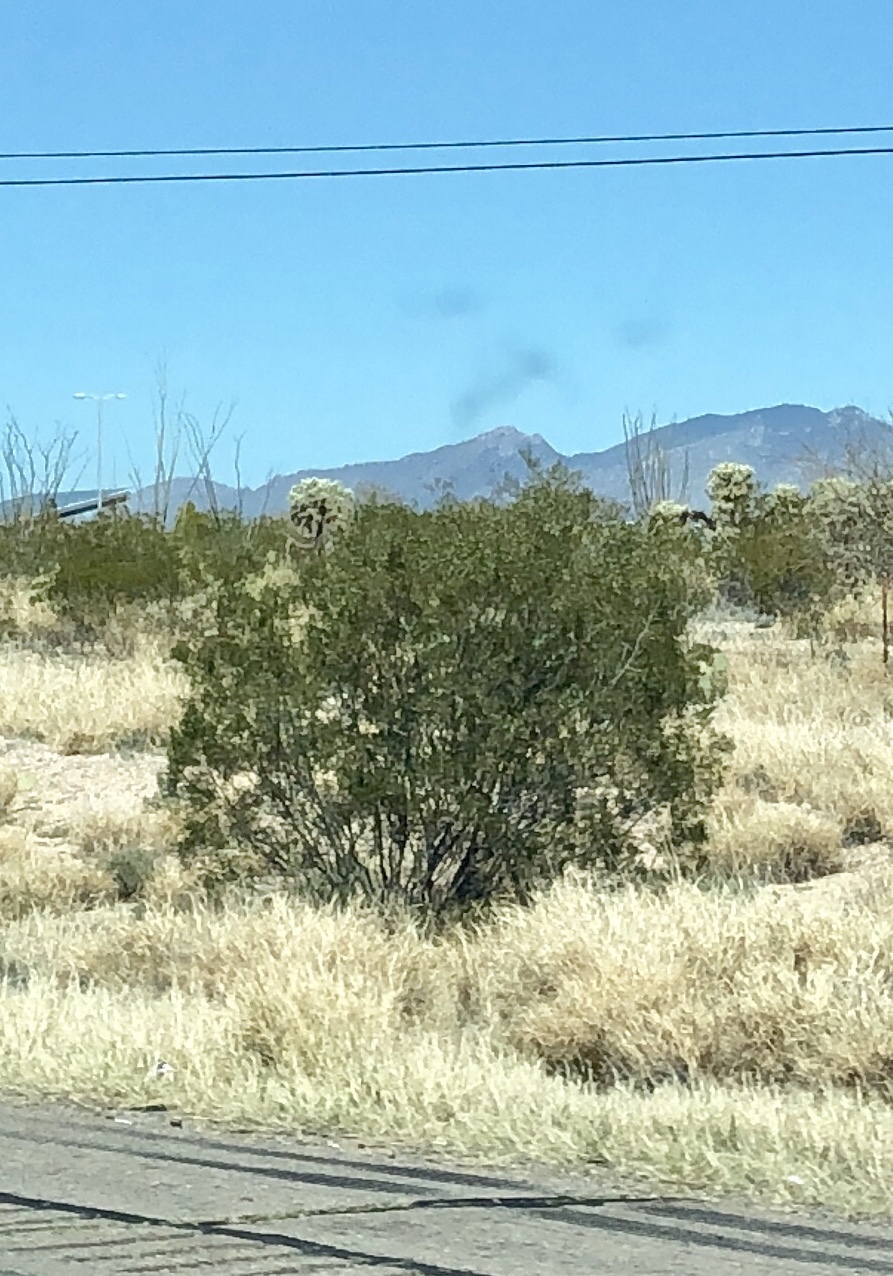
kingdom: Plantae
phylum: Tracheophyta
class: Magnoliopsida
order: Zygophyllales
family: Zygophyllaceae
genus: Larrea
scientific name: Larrea tridentata
